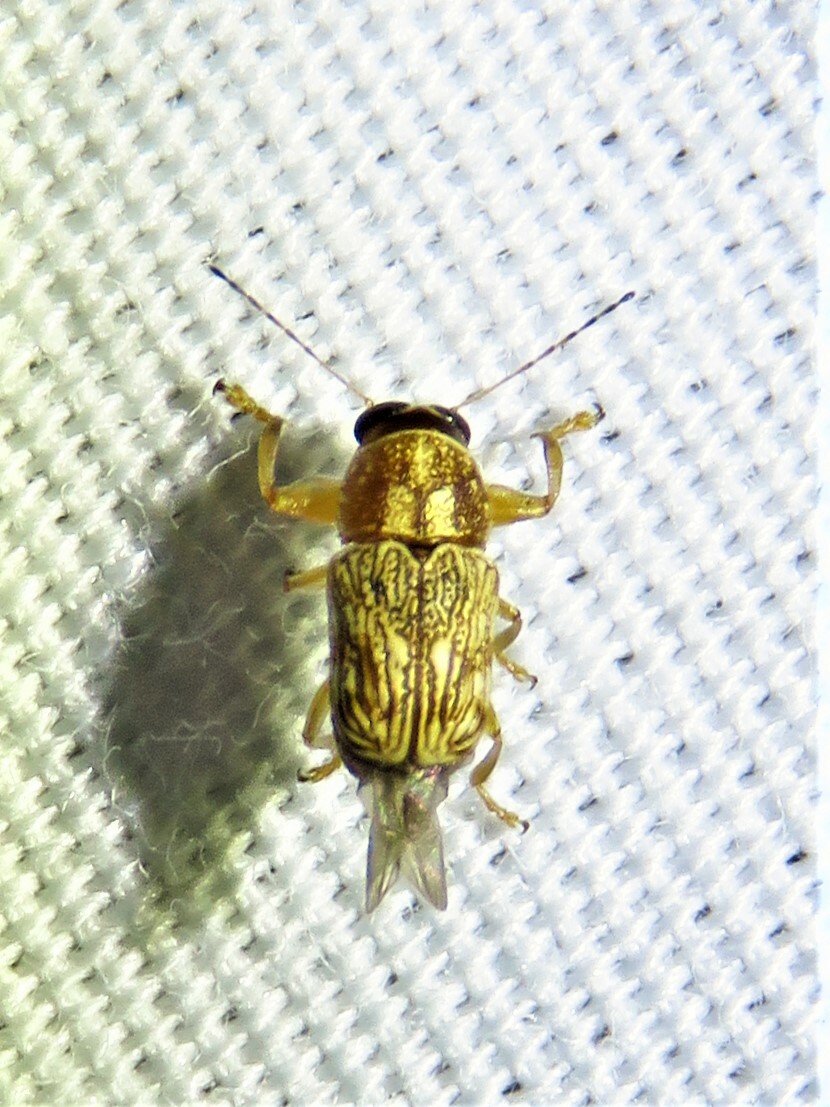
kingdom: Animalia
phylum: Arthropoda
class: Insecta
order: Coleoptera
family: Chrysomelidae
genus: Pachybrachis
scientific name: Pachybrachis texanus
